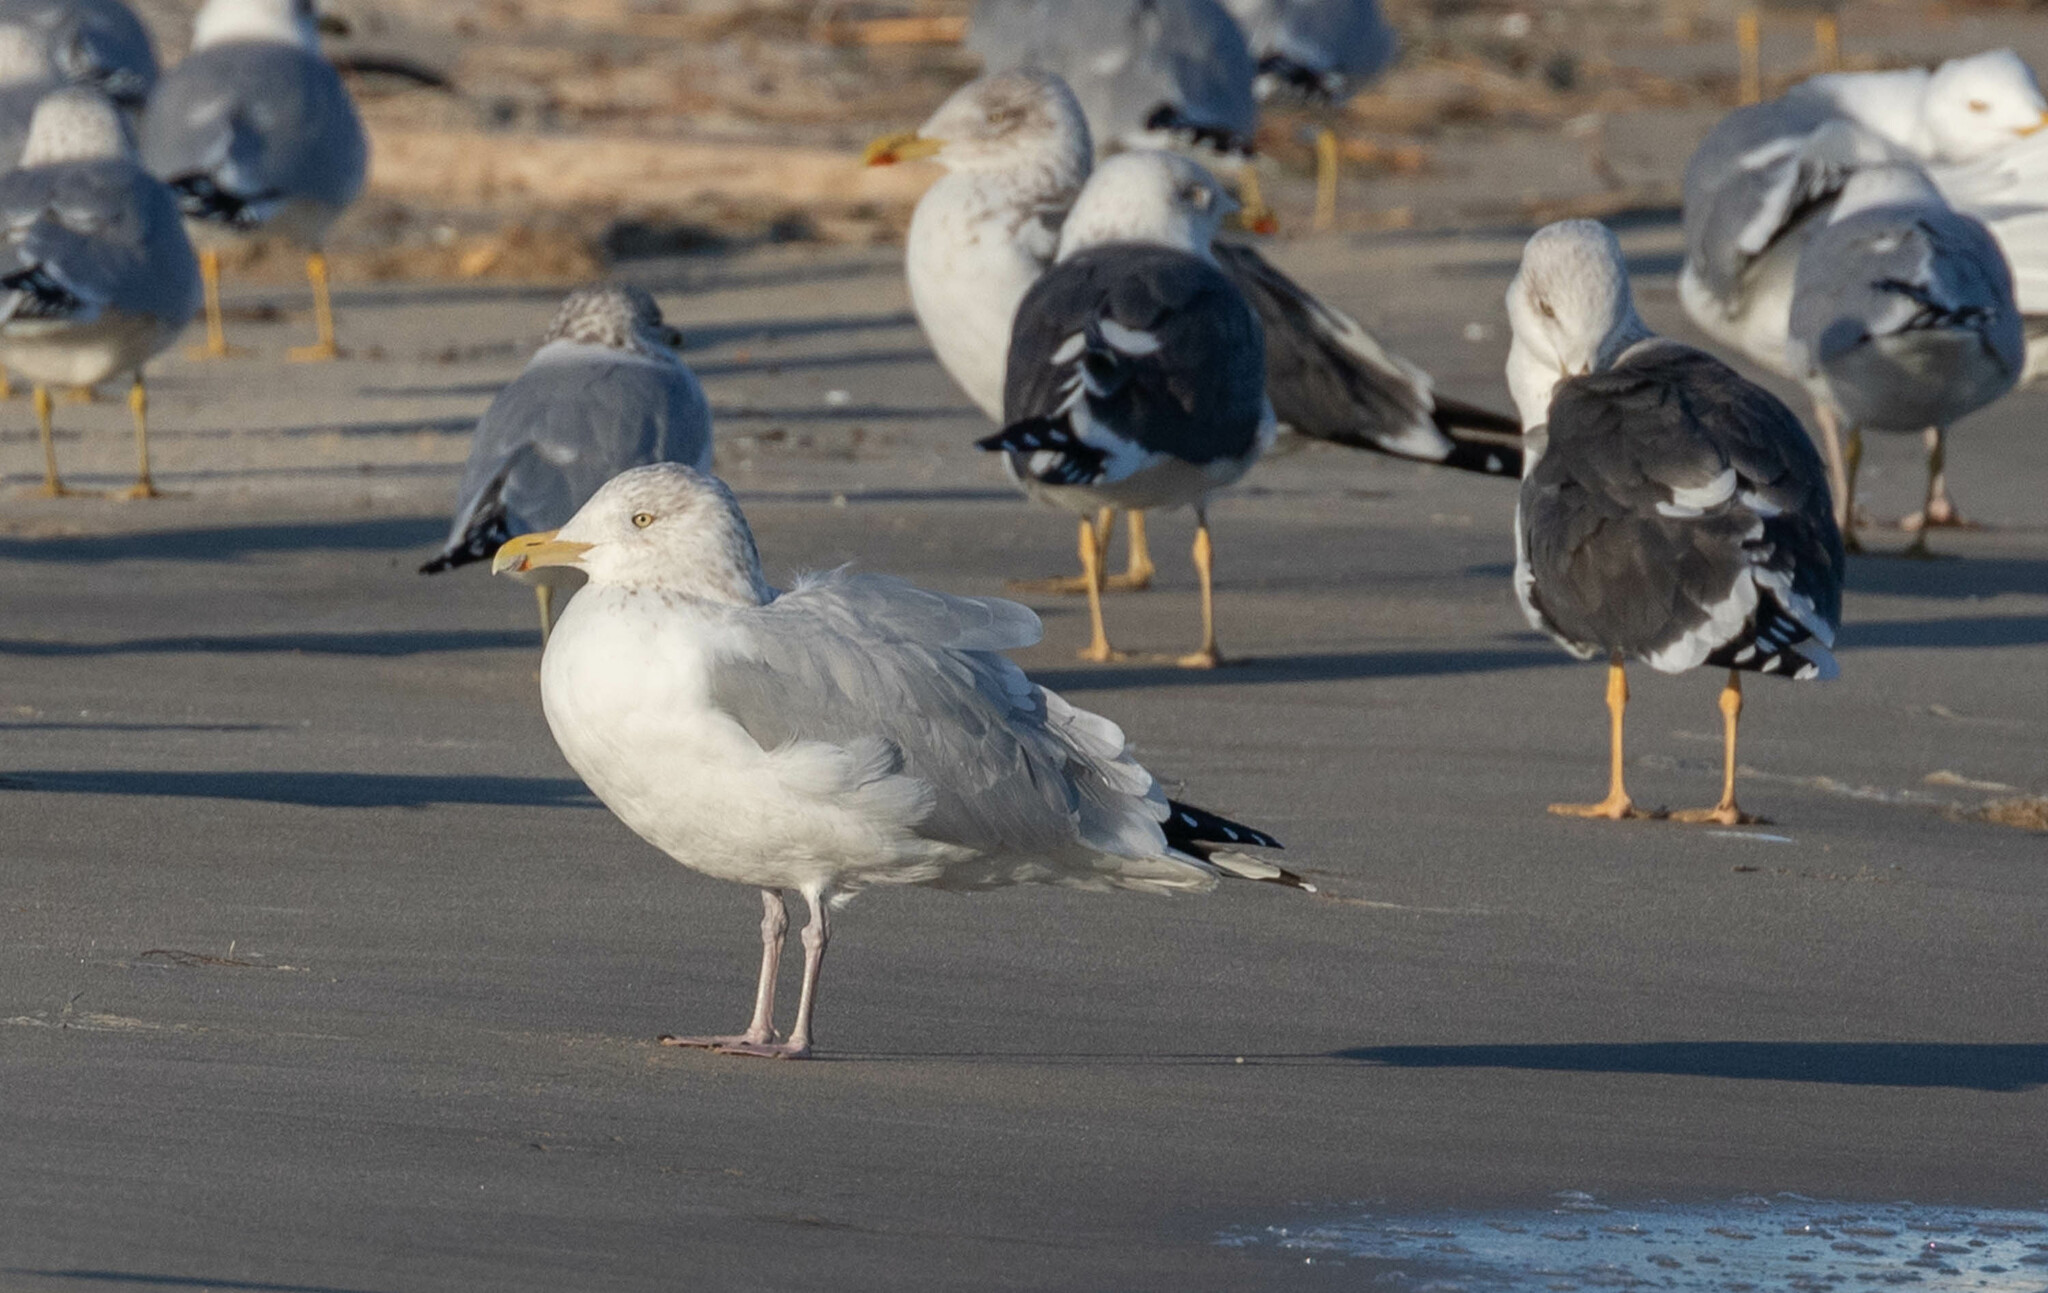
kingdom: Animalia
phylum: Chordata
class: Aves
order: Charadriiformes
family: Laridae
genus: Larus
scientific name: Larus argentatus
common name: Herring gull
